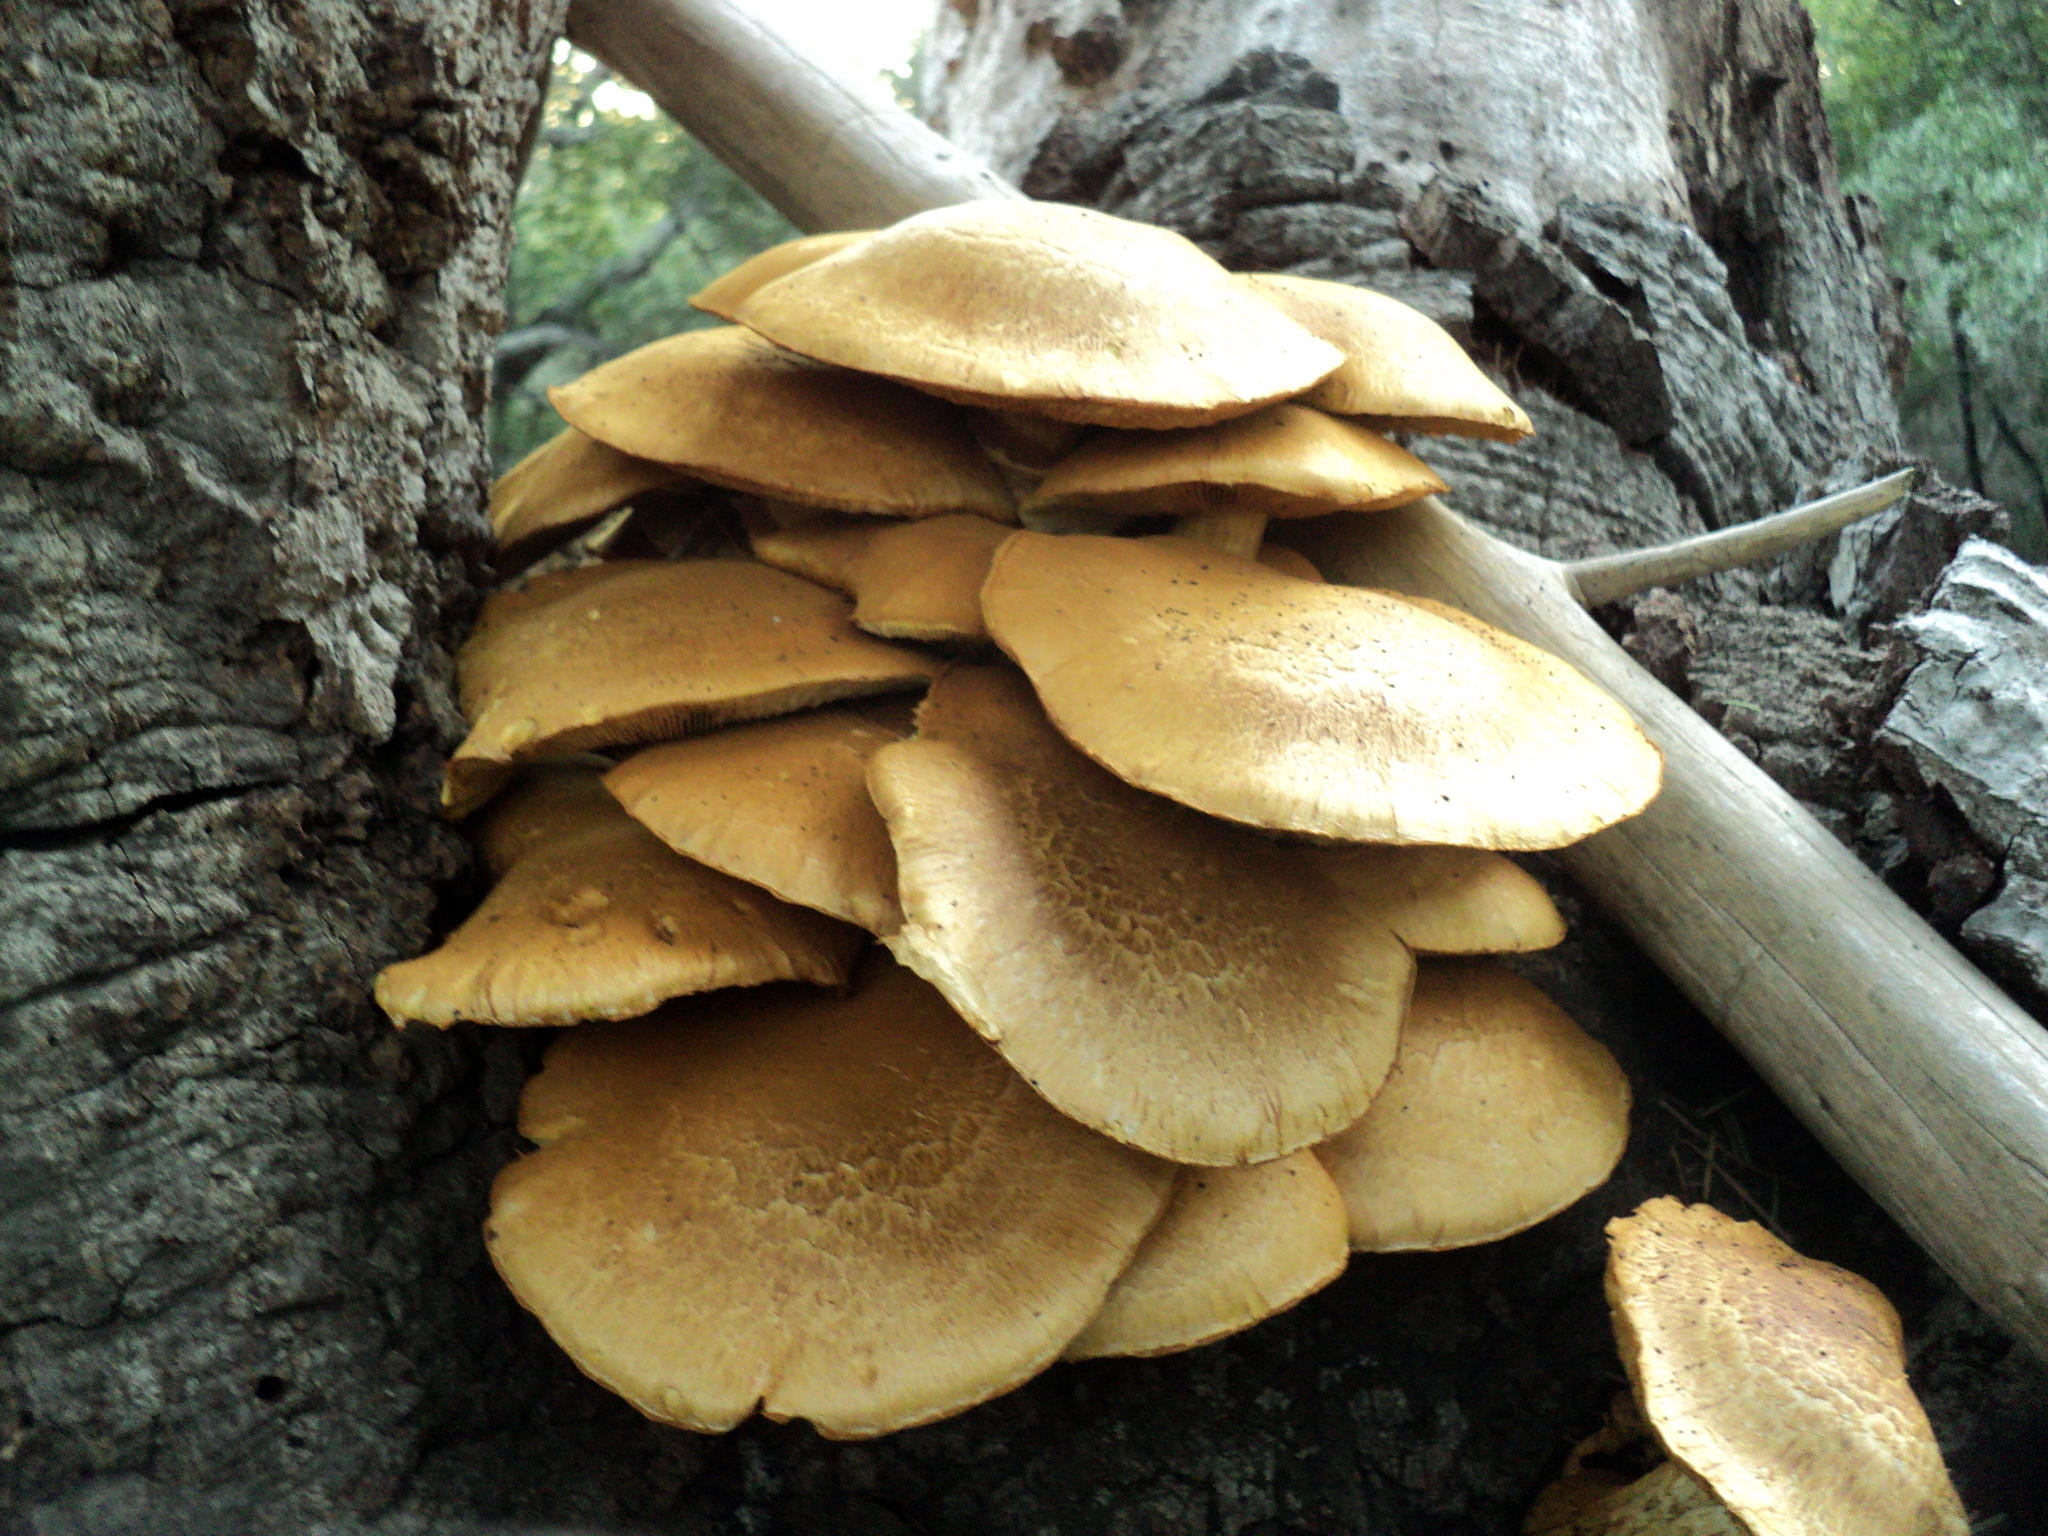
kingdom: Fungi
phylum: Basidiomycota
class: Agaricomycetes
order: Agaricales
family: Hymenogastraceae
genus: Gymnopilus
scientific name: Gymnopilus ventricosus
